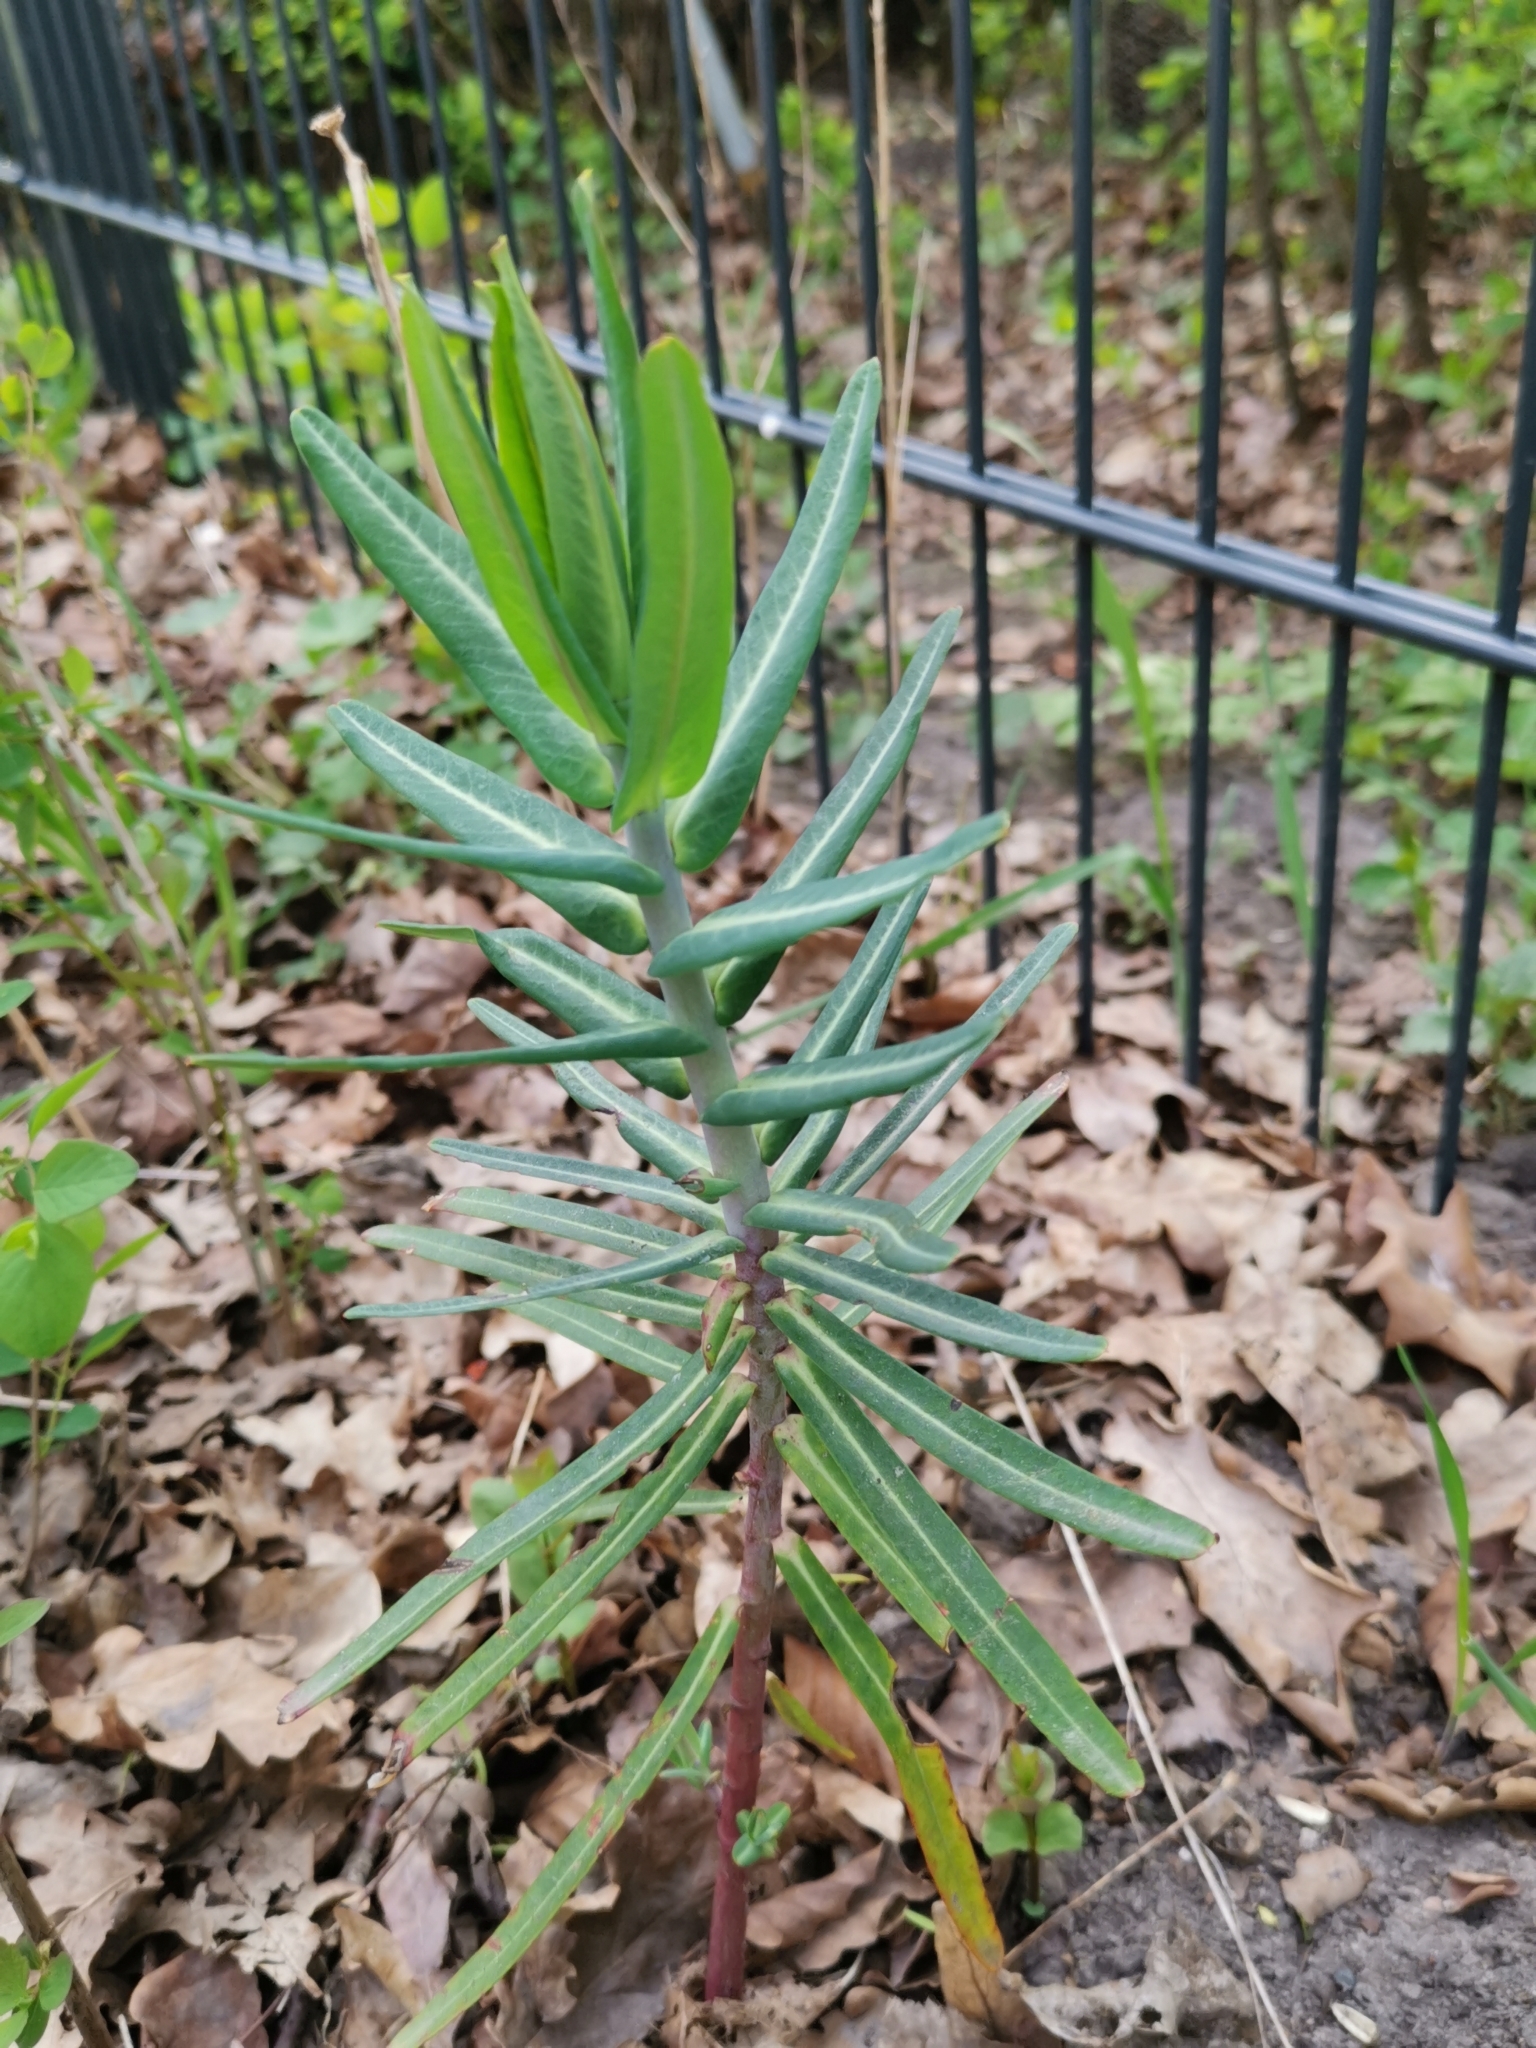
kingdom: Plantae
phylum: Tracheophyta
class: Magnoliopsida
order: Malpighiales
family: Euphorbiaceae
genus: Euphorbia
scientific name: Euphorbia lathyris
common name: Caper spurge
